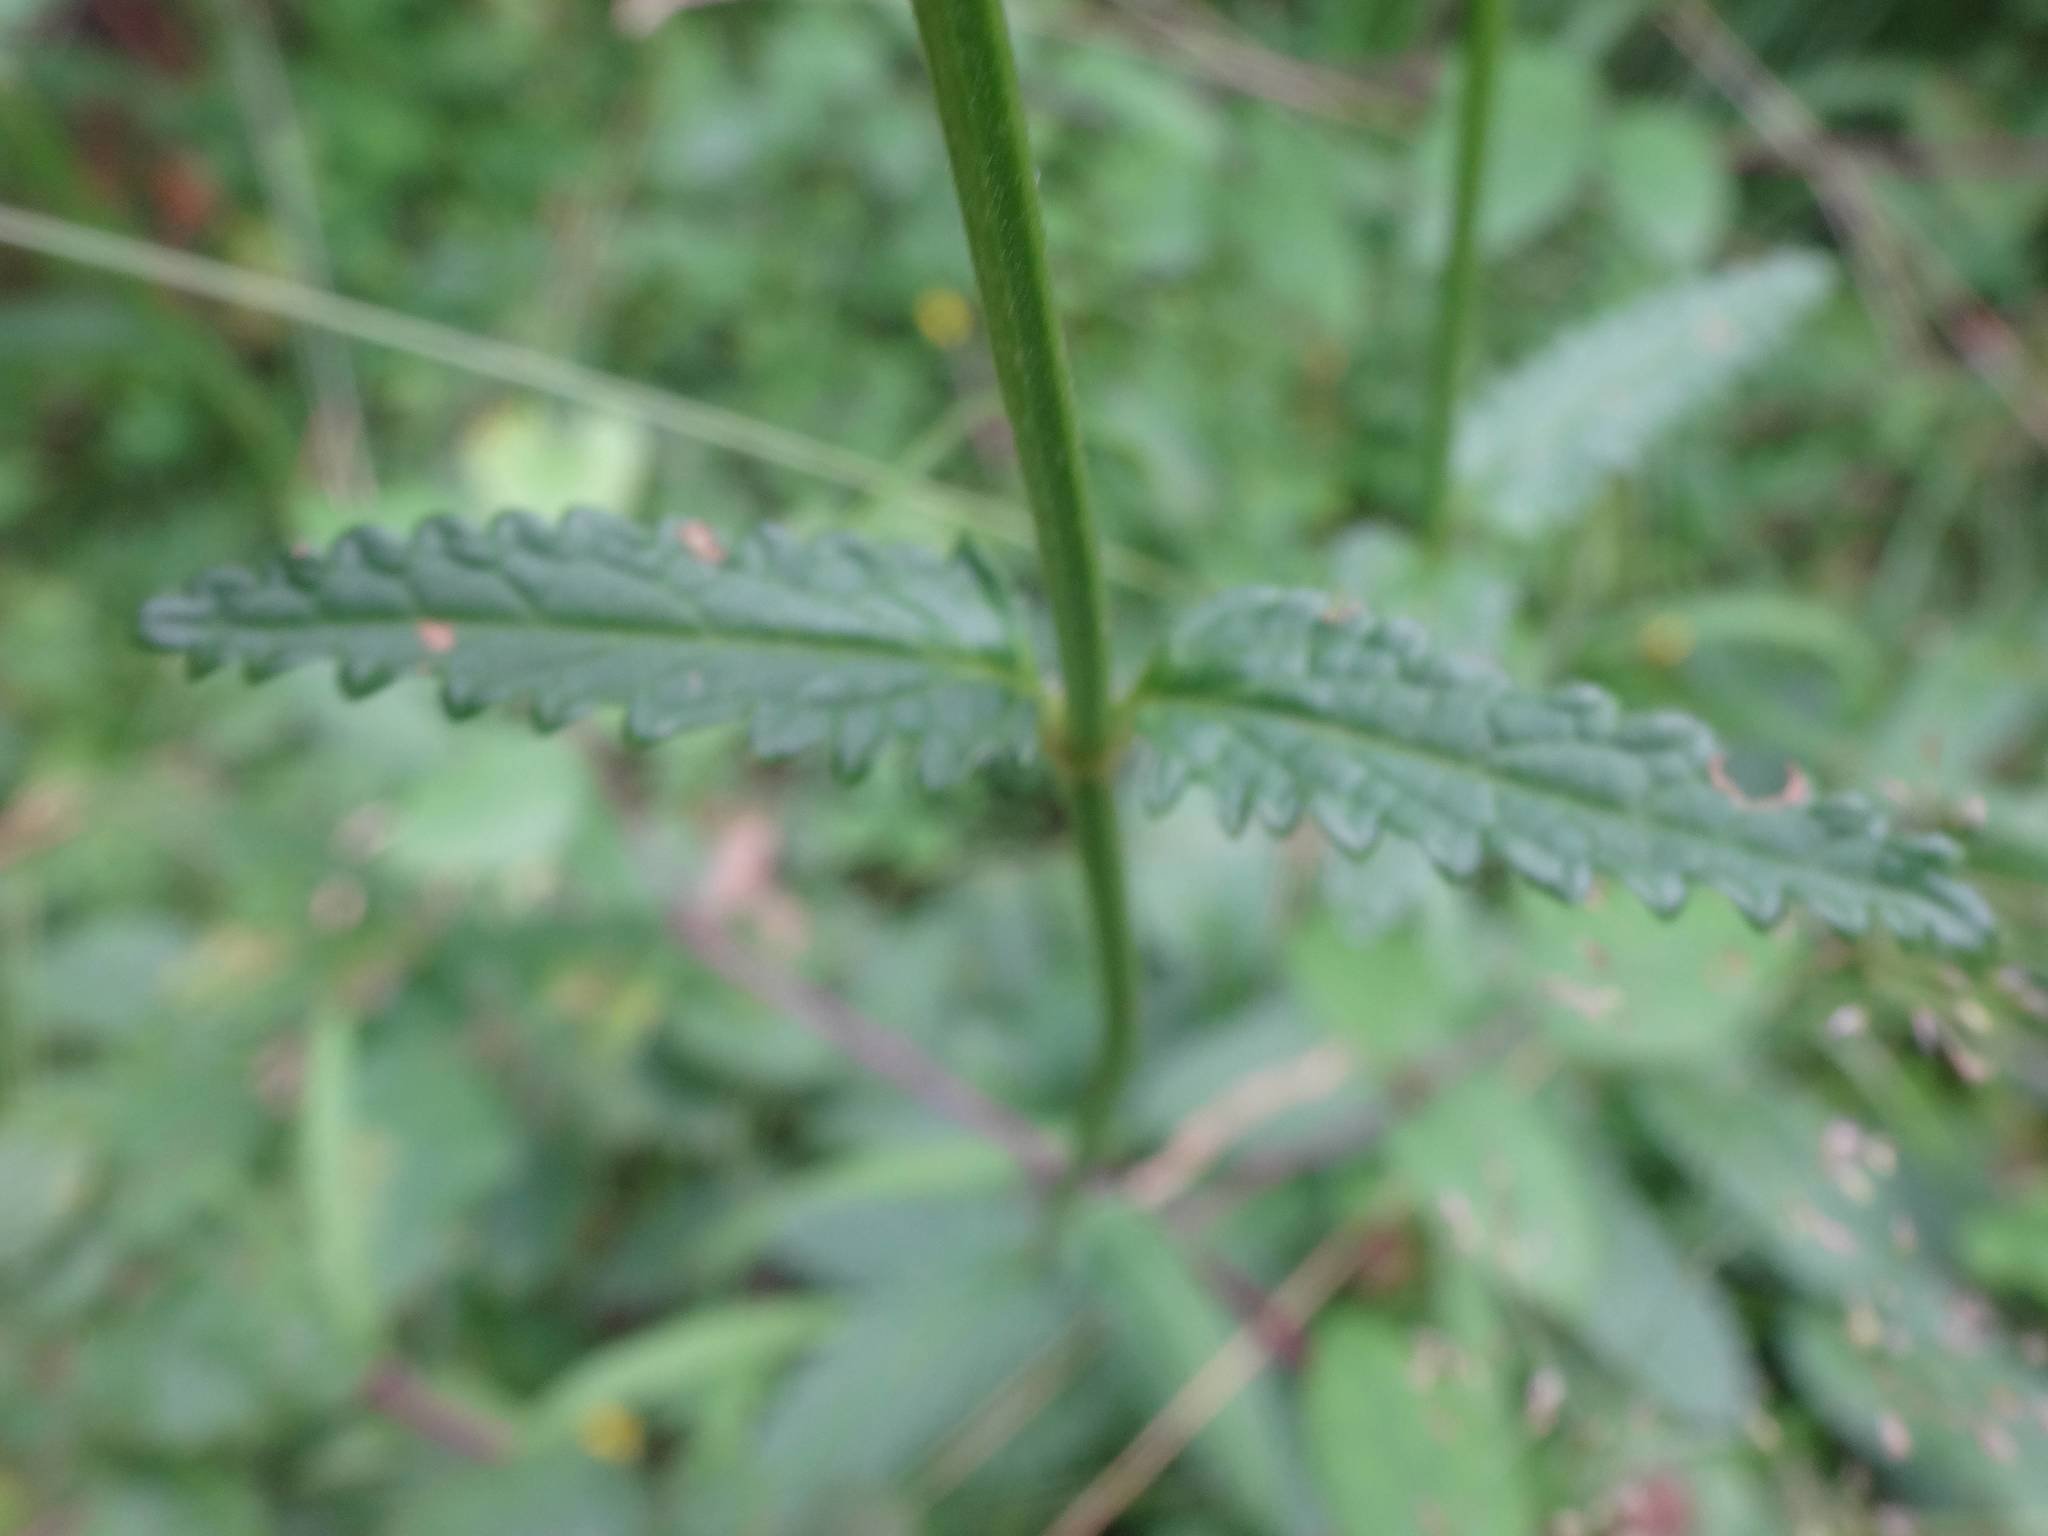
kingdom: Plantae
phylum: Tracheophyta
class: Magnoliopsida
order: Lamiales
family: Lamiaceae
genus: Betonica
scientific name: Betonica officinalis
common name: Bishop's-wort
